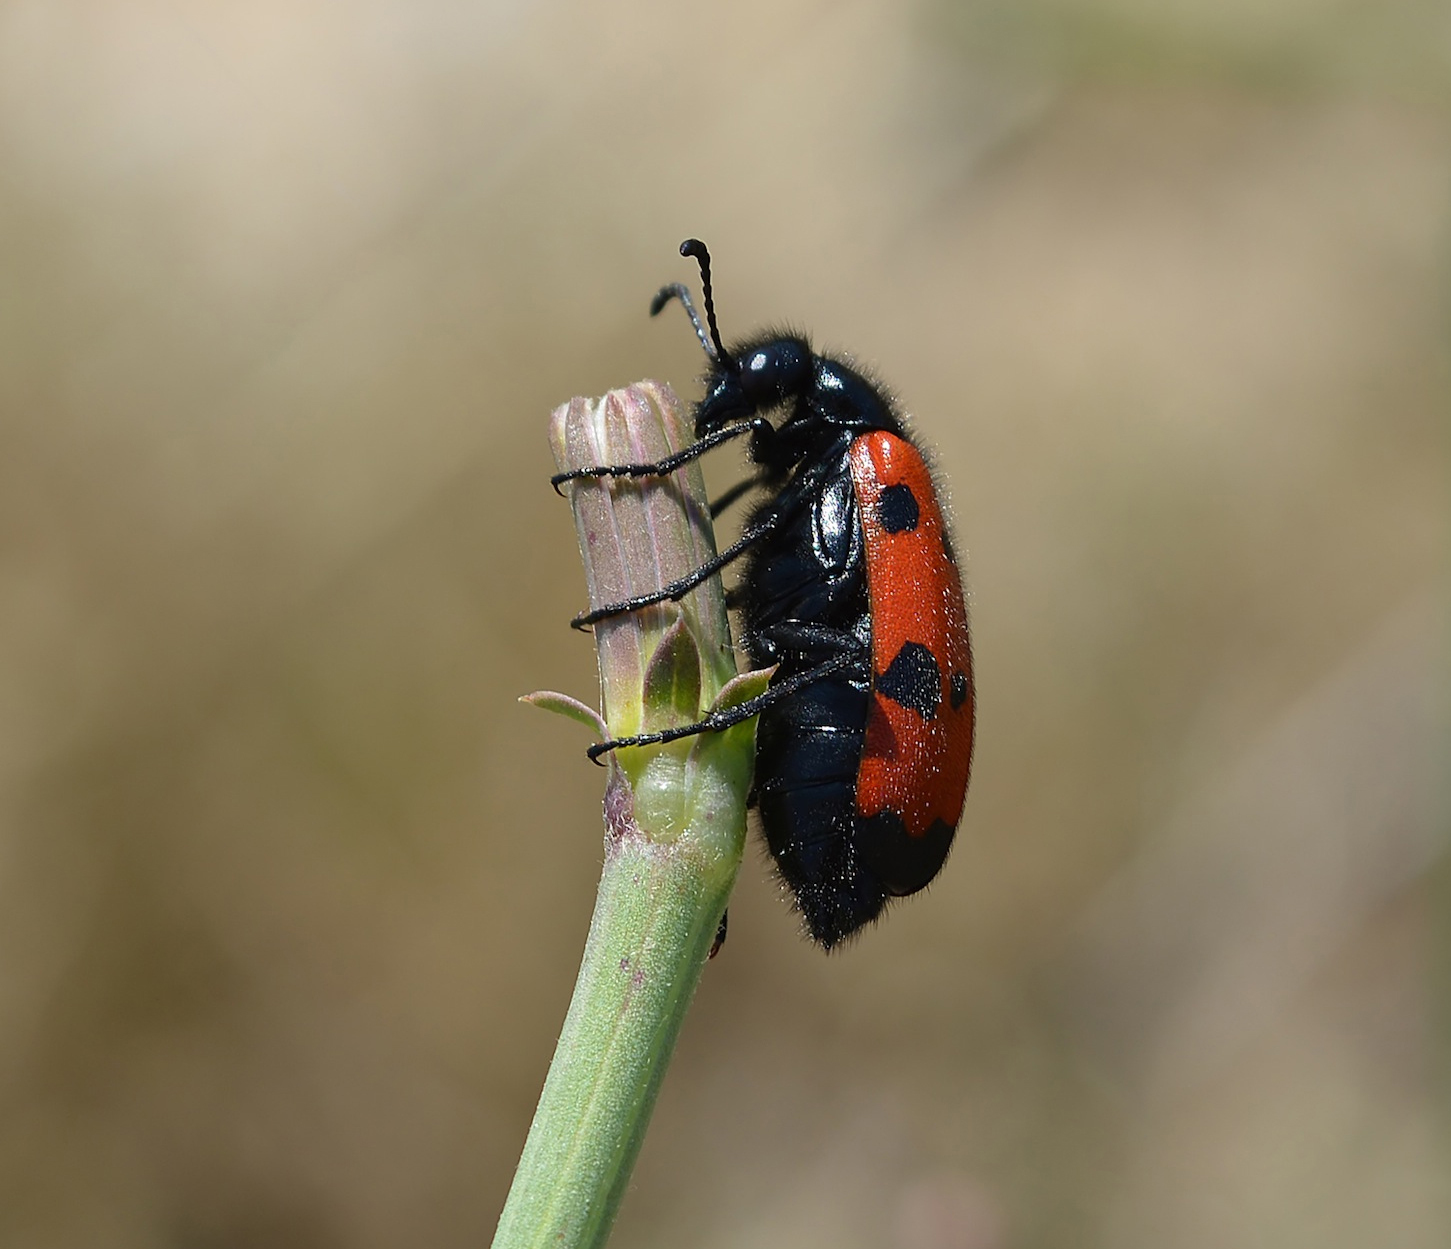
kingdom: Animalia
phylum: Arthropoda
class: Insecta
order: Coleoptera
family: Meloidae
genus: Mylabris
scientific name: Mylabris quadripunctata
